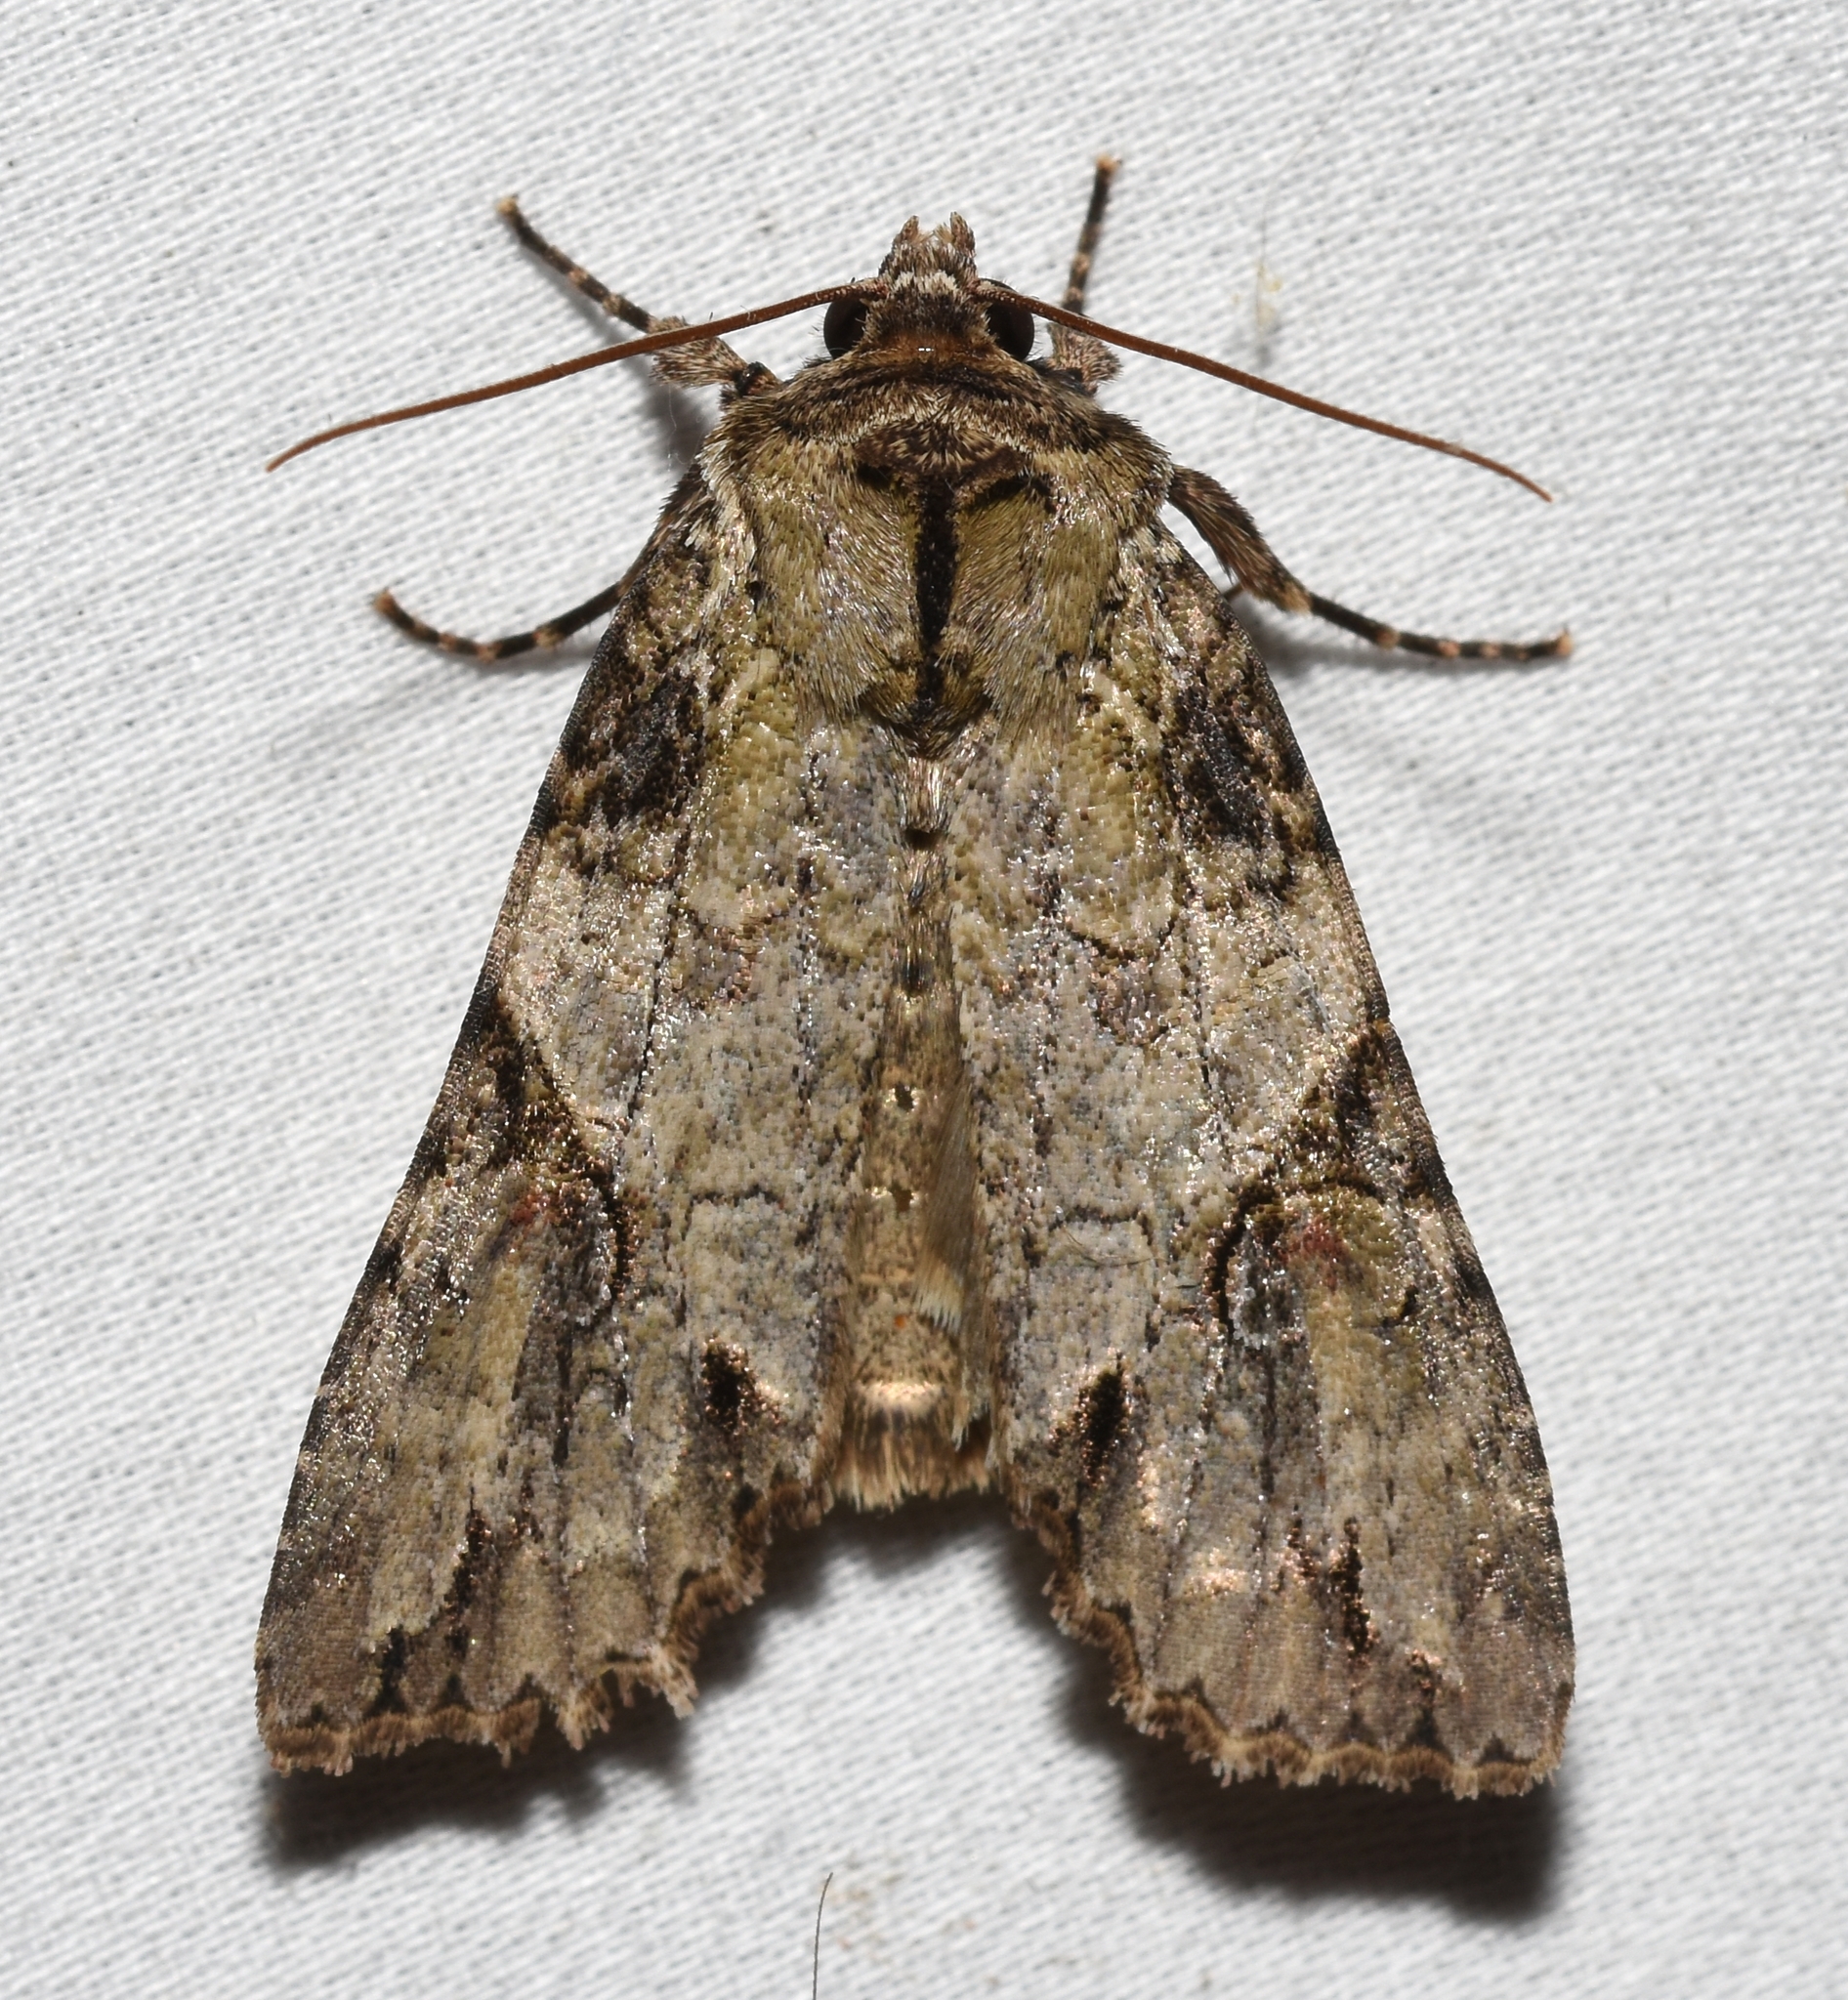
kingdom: Animalia
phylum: Arthropoda
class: Insecta
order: Lepidoptera
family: Noctuidae
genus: Achatia
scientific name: Achatia latex
